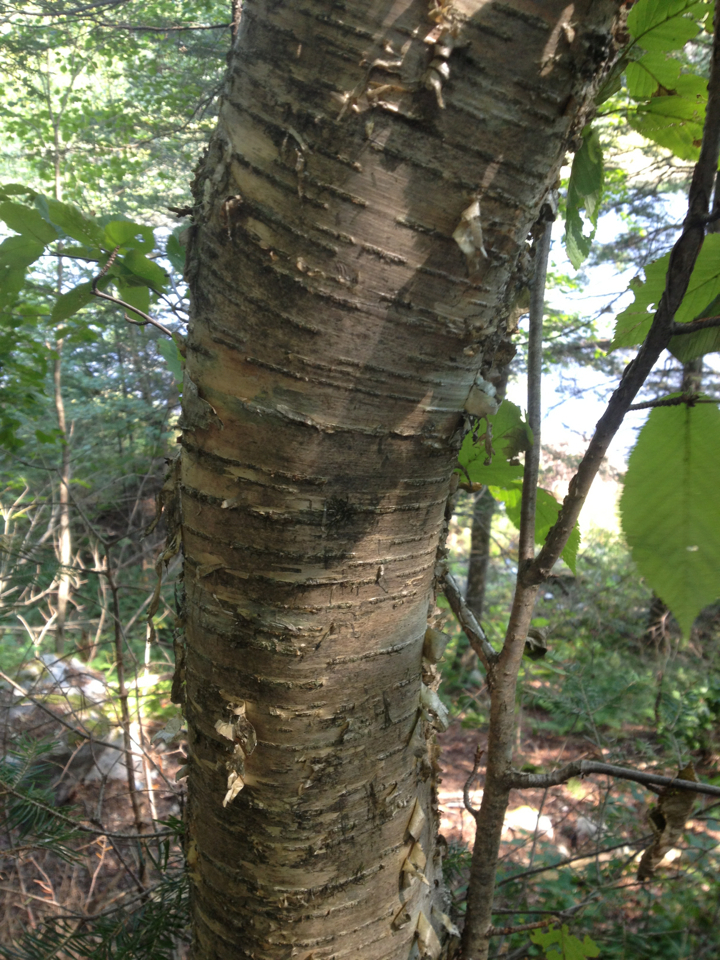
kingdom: Plantae
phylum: Tracheophyta
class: Magnoliopsida
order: Fagales
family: Betulaceae
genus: Betula
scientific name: Betula alleghaniensis
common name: Yellow birch
